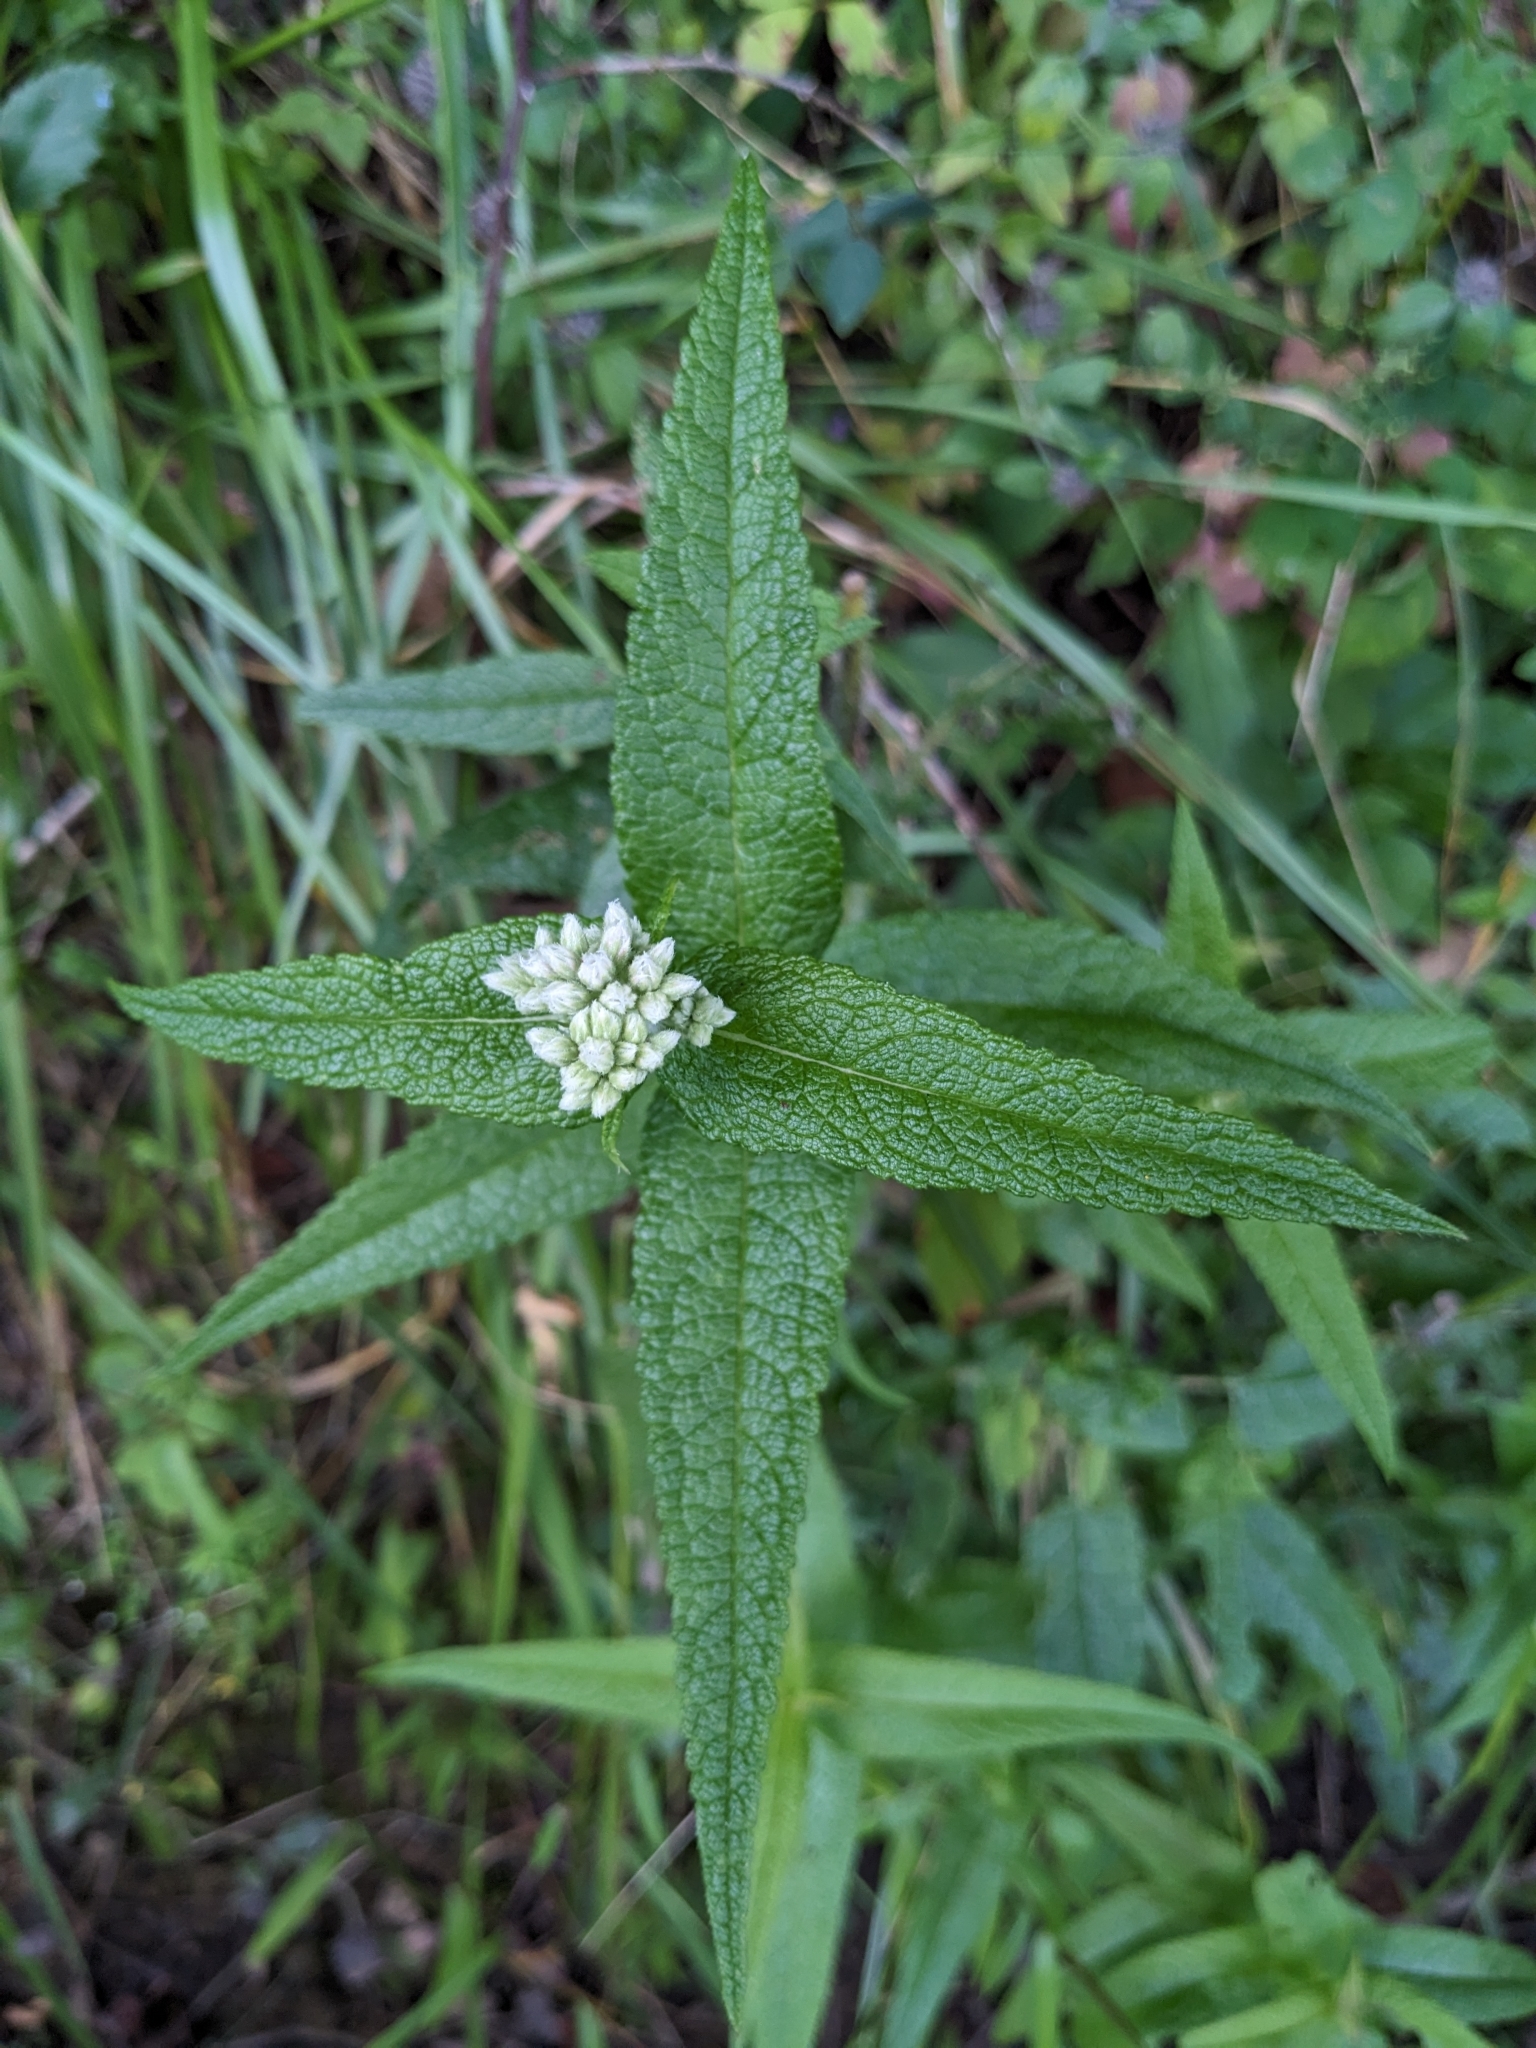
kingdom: Plantae
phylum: Tracheophyta
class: Magnoliopsida
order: Asterales
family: Asteraceae
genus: Eupatorium
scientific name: Eupatorium perfoliatum
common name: Boneset
